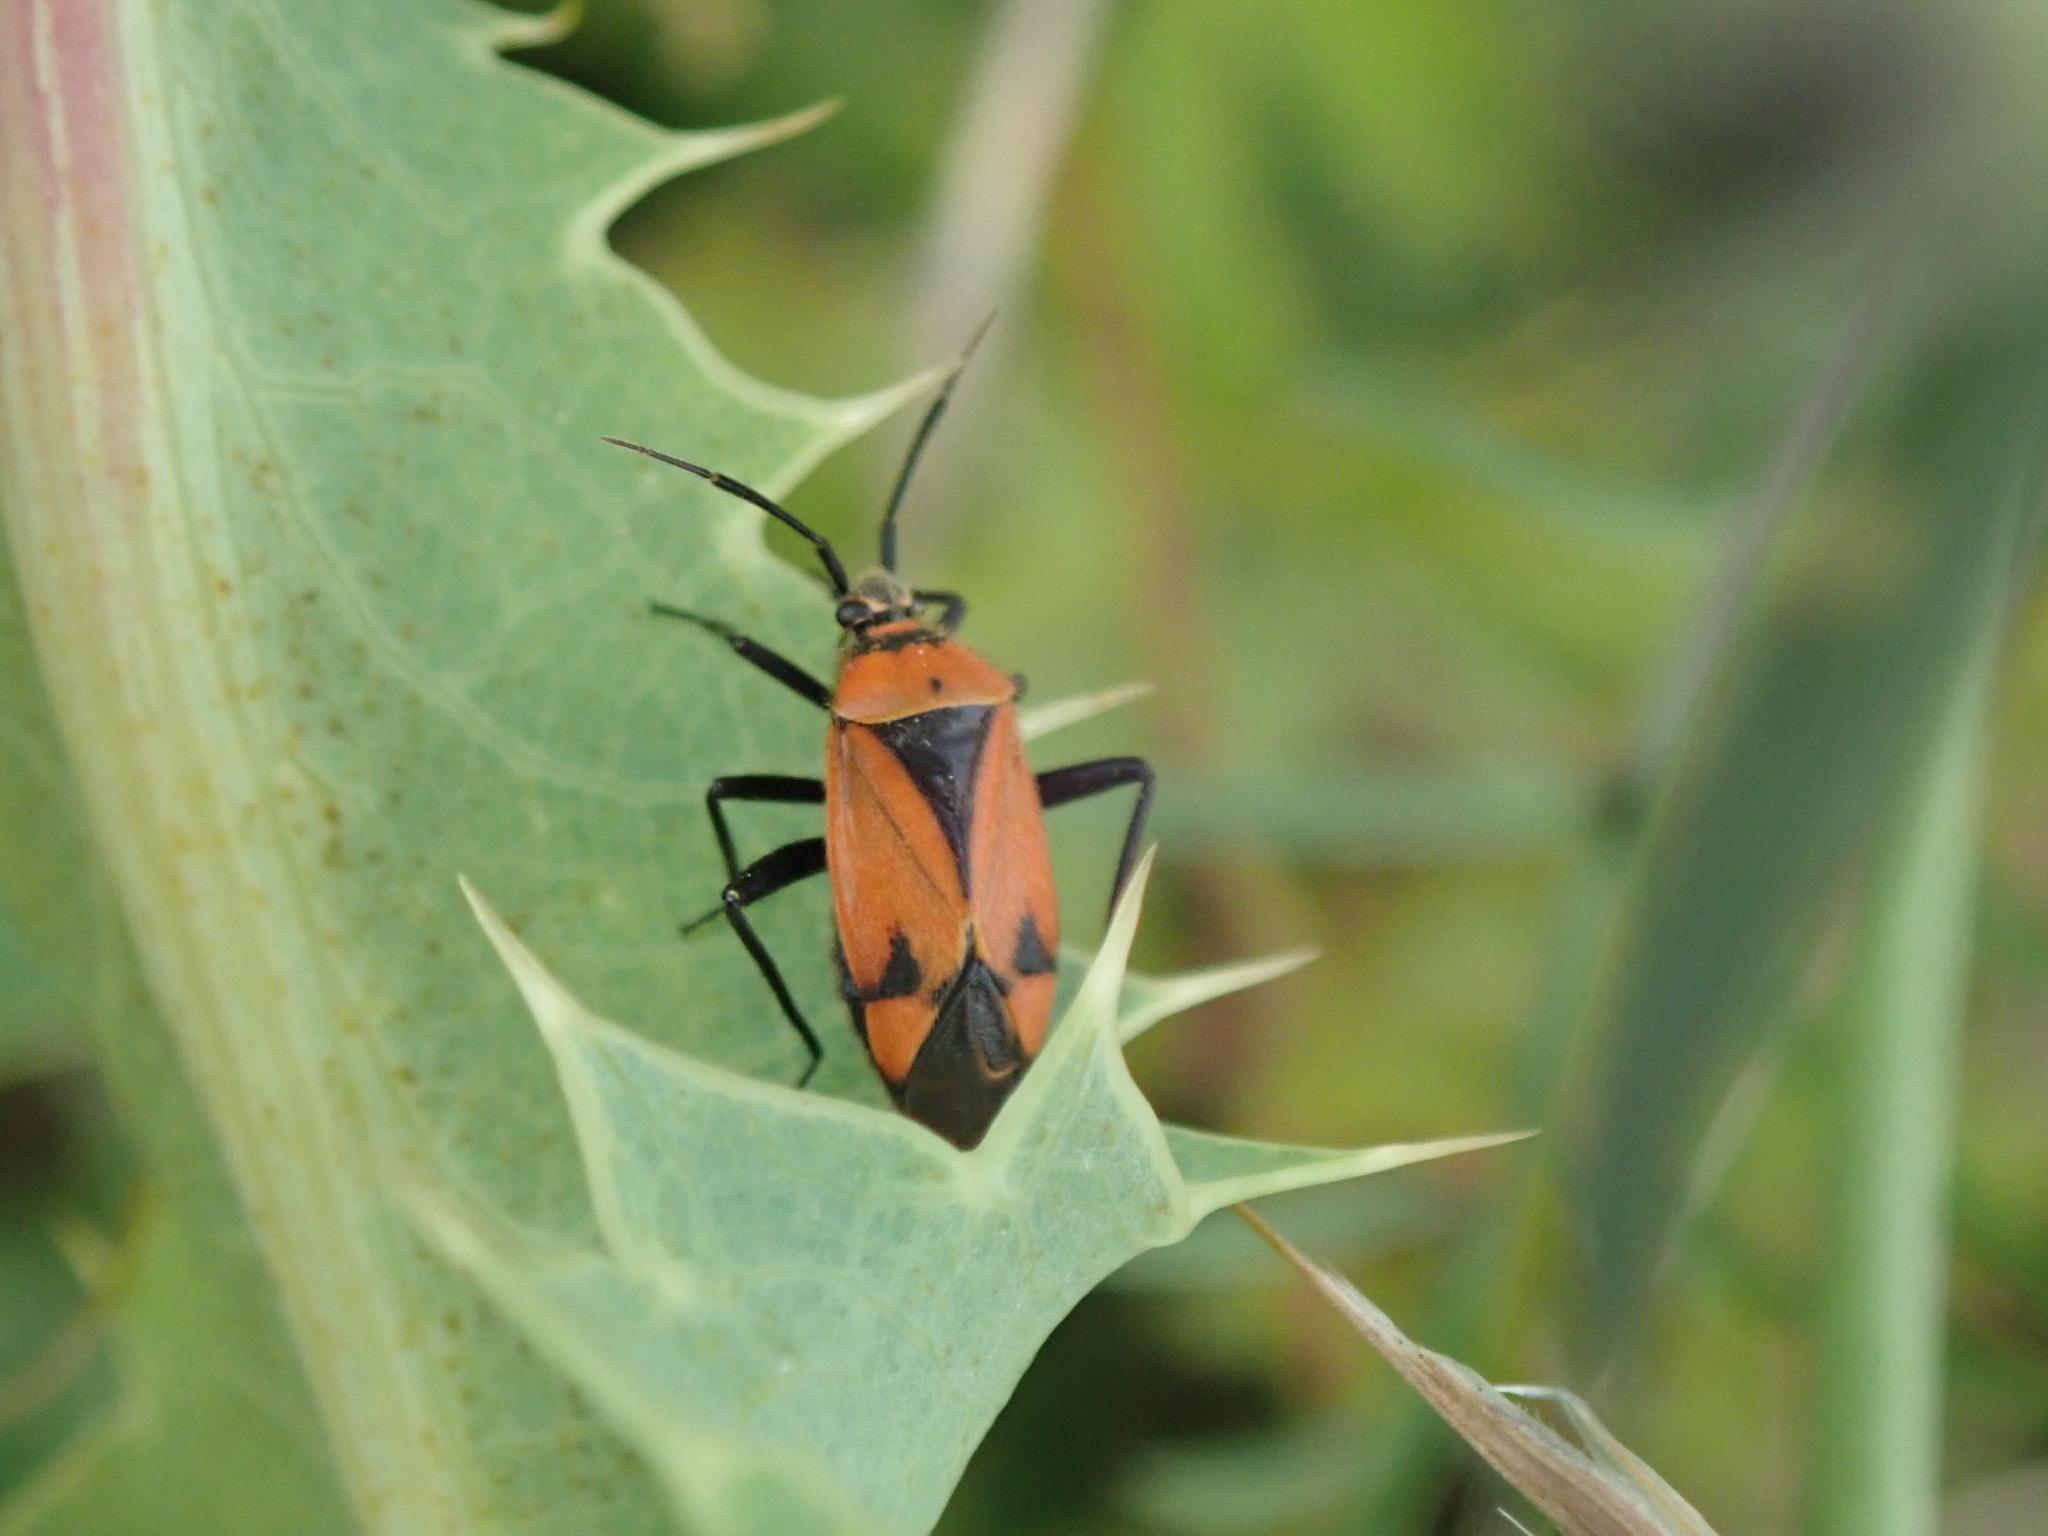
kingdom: Animalia
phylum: Arthropoda
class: Insecta
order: Hemiptera
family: Miridae
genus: Brachycoleus
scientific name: Brachycoleus triangularis
